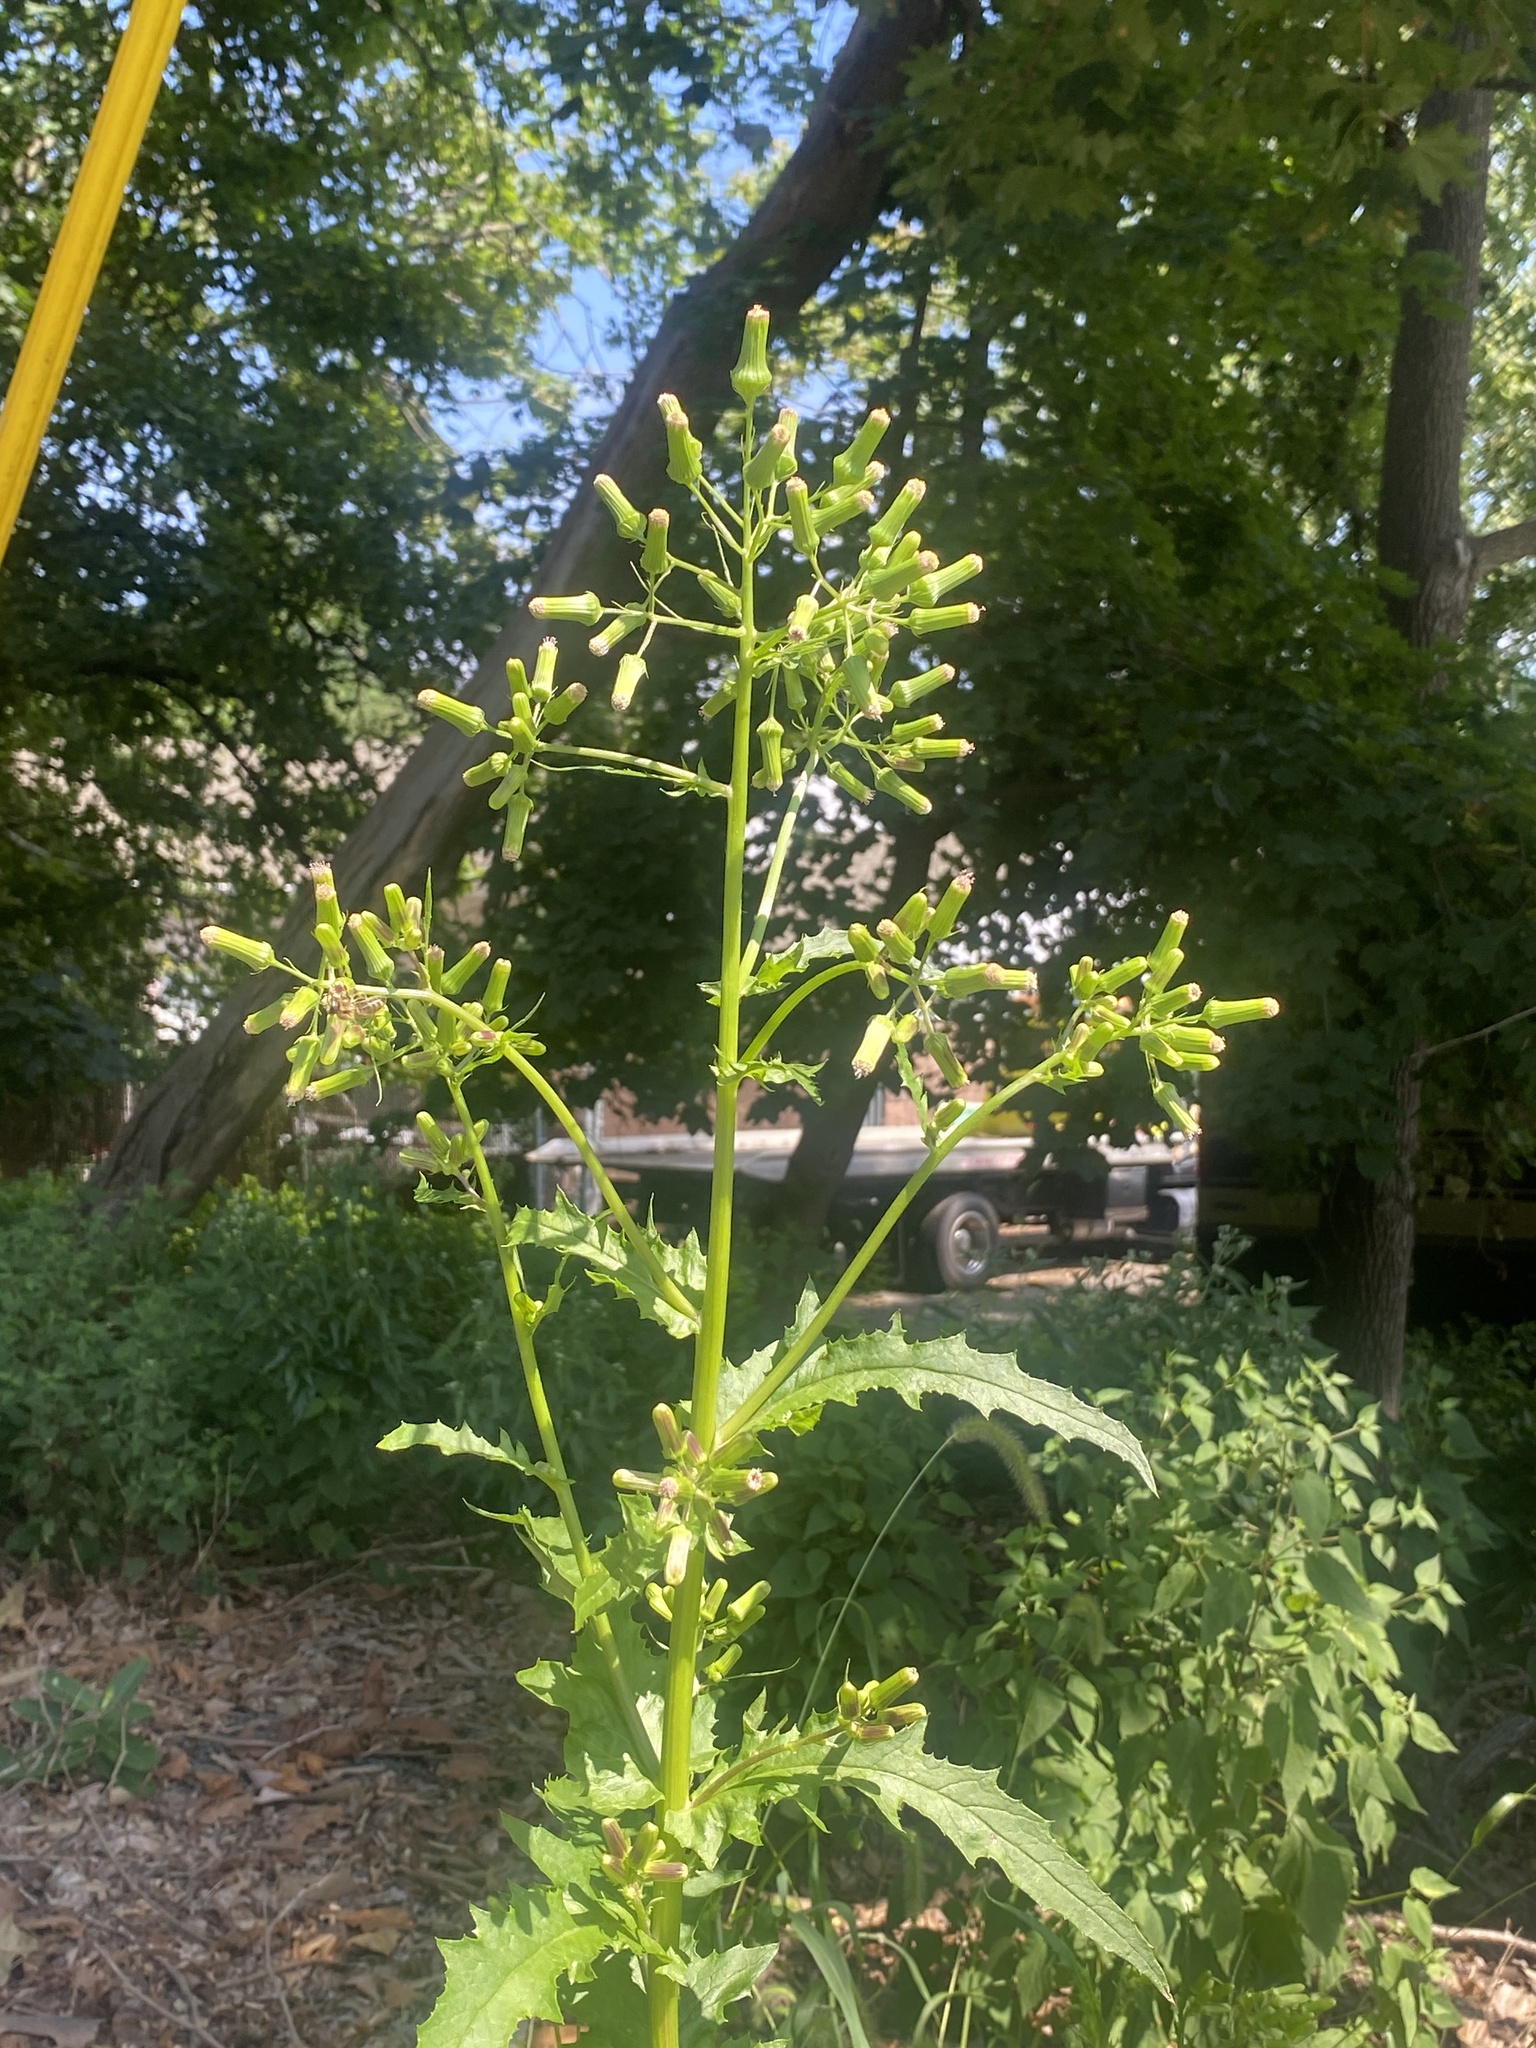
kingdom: Plantae
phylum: Tracheophyta
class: Magnoliopsida
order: Asterales
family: Asteraceae
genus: Erechtites
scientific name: Erechtites hieraciifolius
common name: American burnweed
